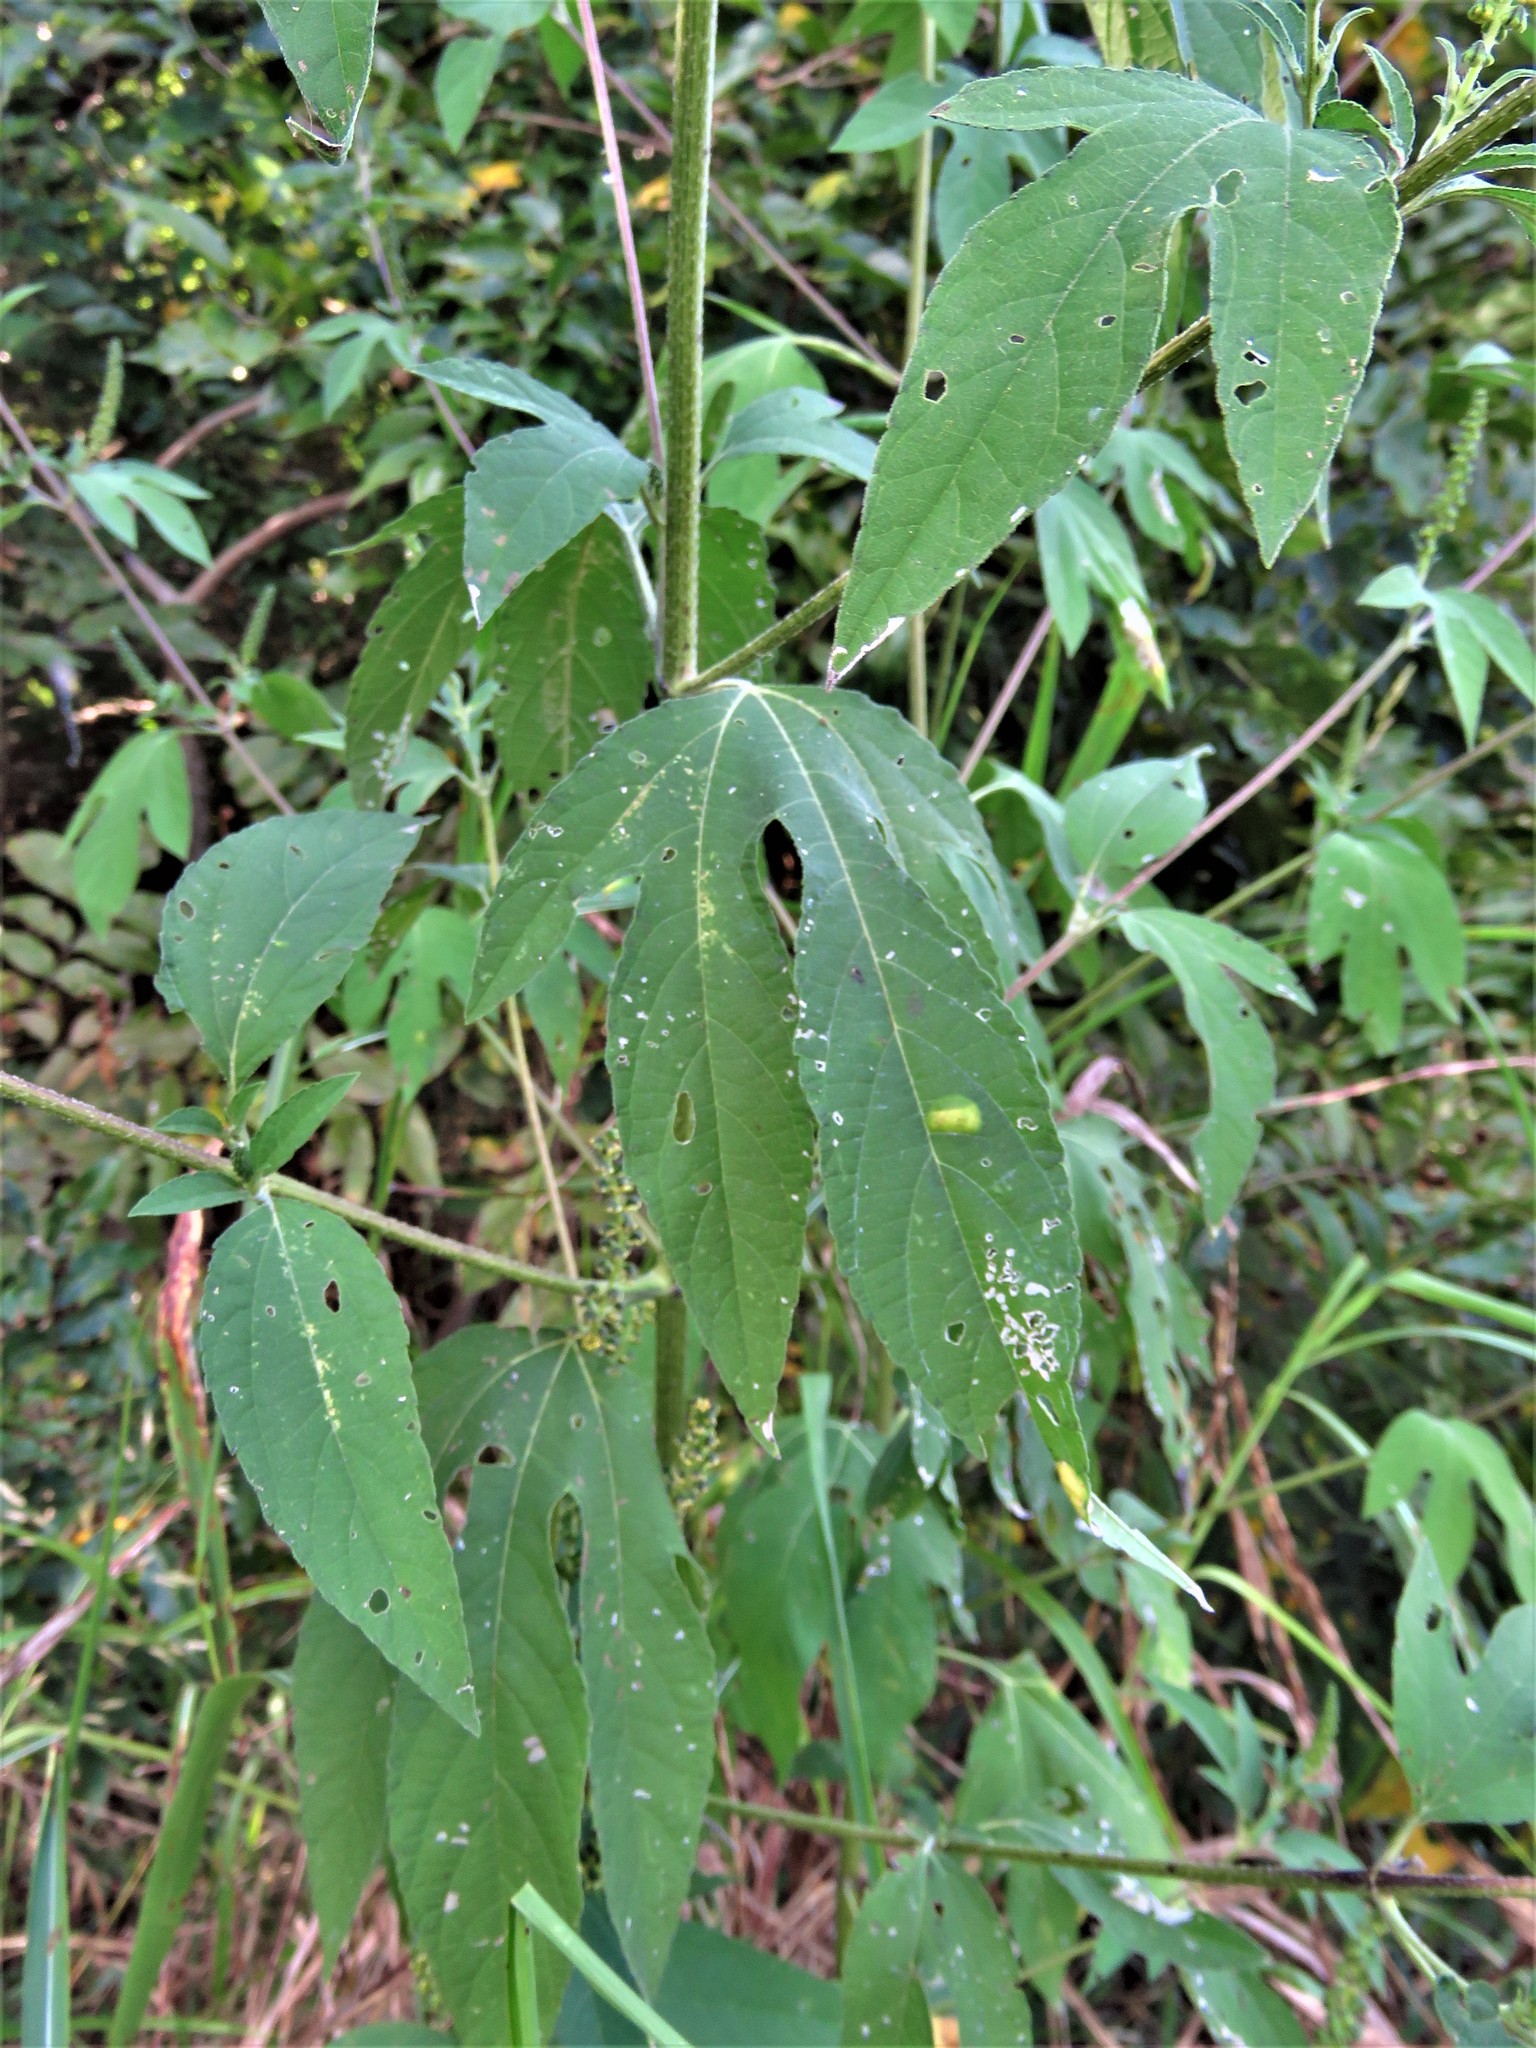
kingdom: Plantae
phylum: Tracheophyta
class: Magnoliopsida
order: Asterales
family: Asteraceae
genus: Ambrosia
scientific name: Ambrosia trifida
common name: Giant ragweed
